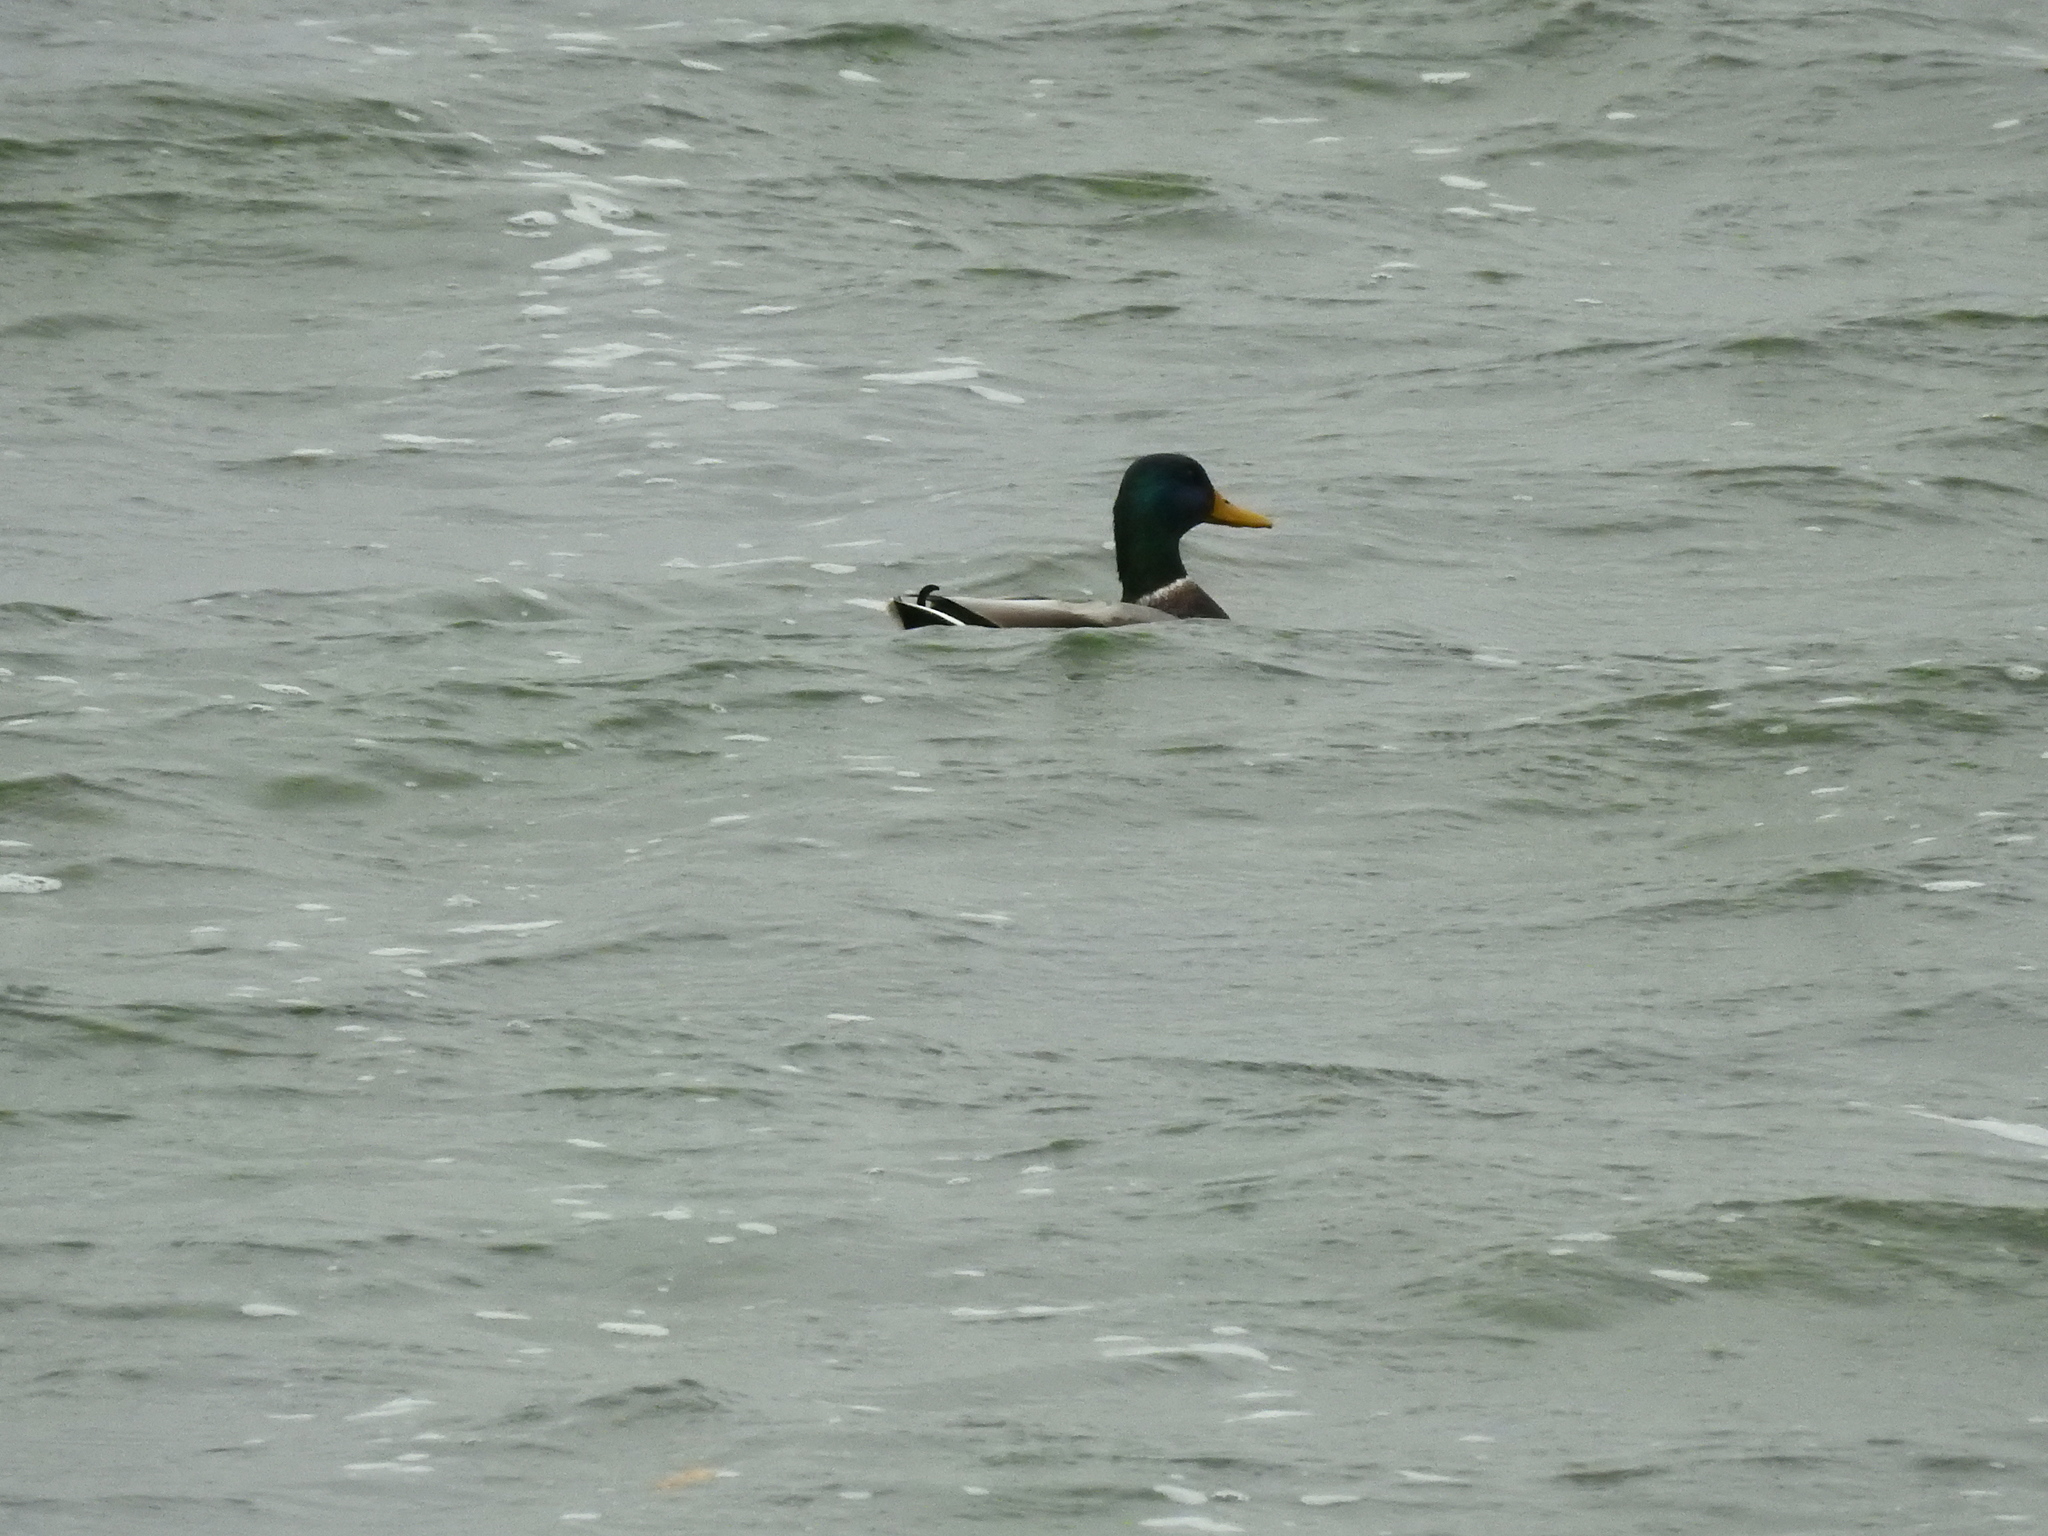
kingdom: Animalia
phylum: Chordata
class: Aves
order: Anseriformes
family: Anatidae
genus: Anas
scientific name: Anas platyrhynchos
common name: Mallard
